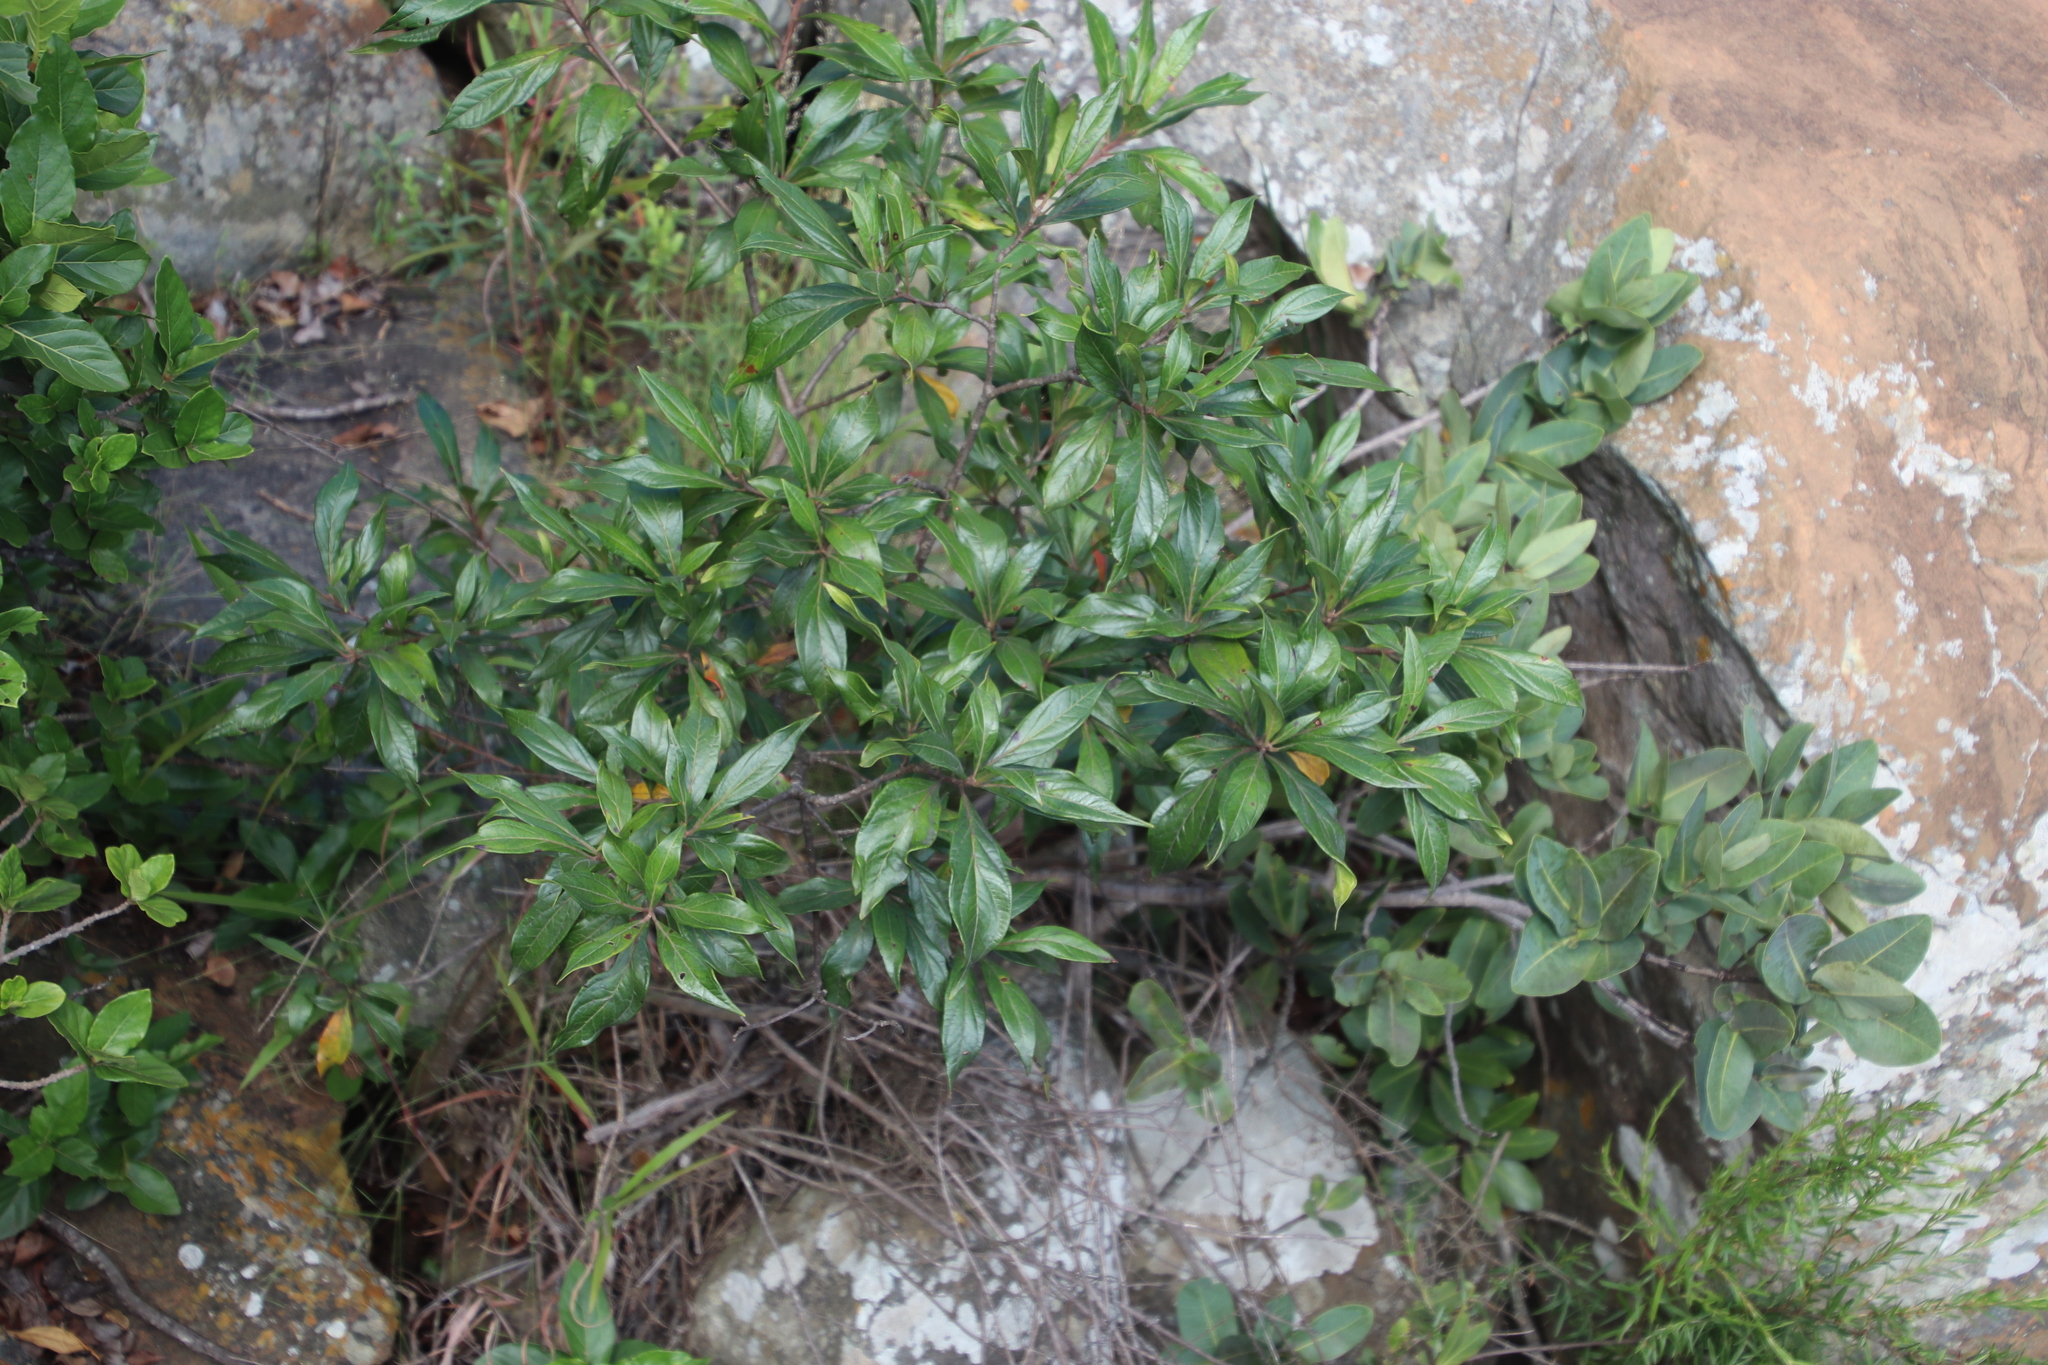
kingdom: Plantae
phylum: Tracheophyta
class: Magnoliopsida
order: Myrtales
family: Myrtaceae
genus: Heteropyxis
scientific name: Heteropyxis natalensis
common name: Lavender tree
